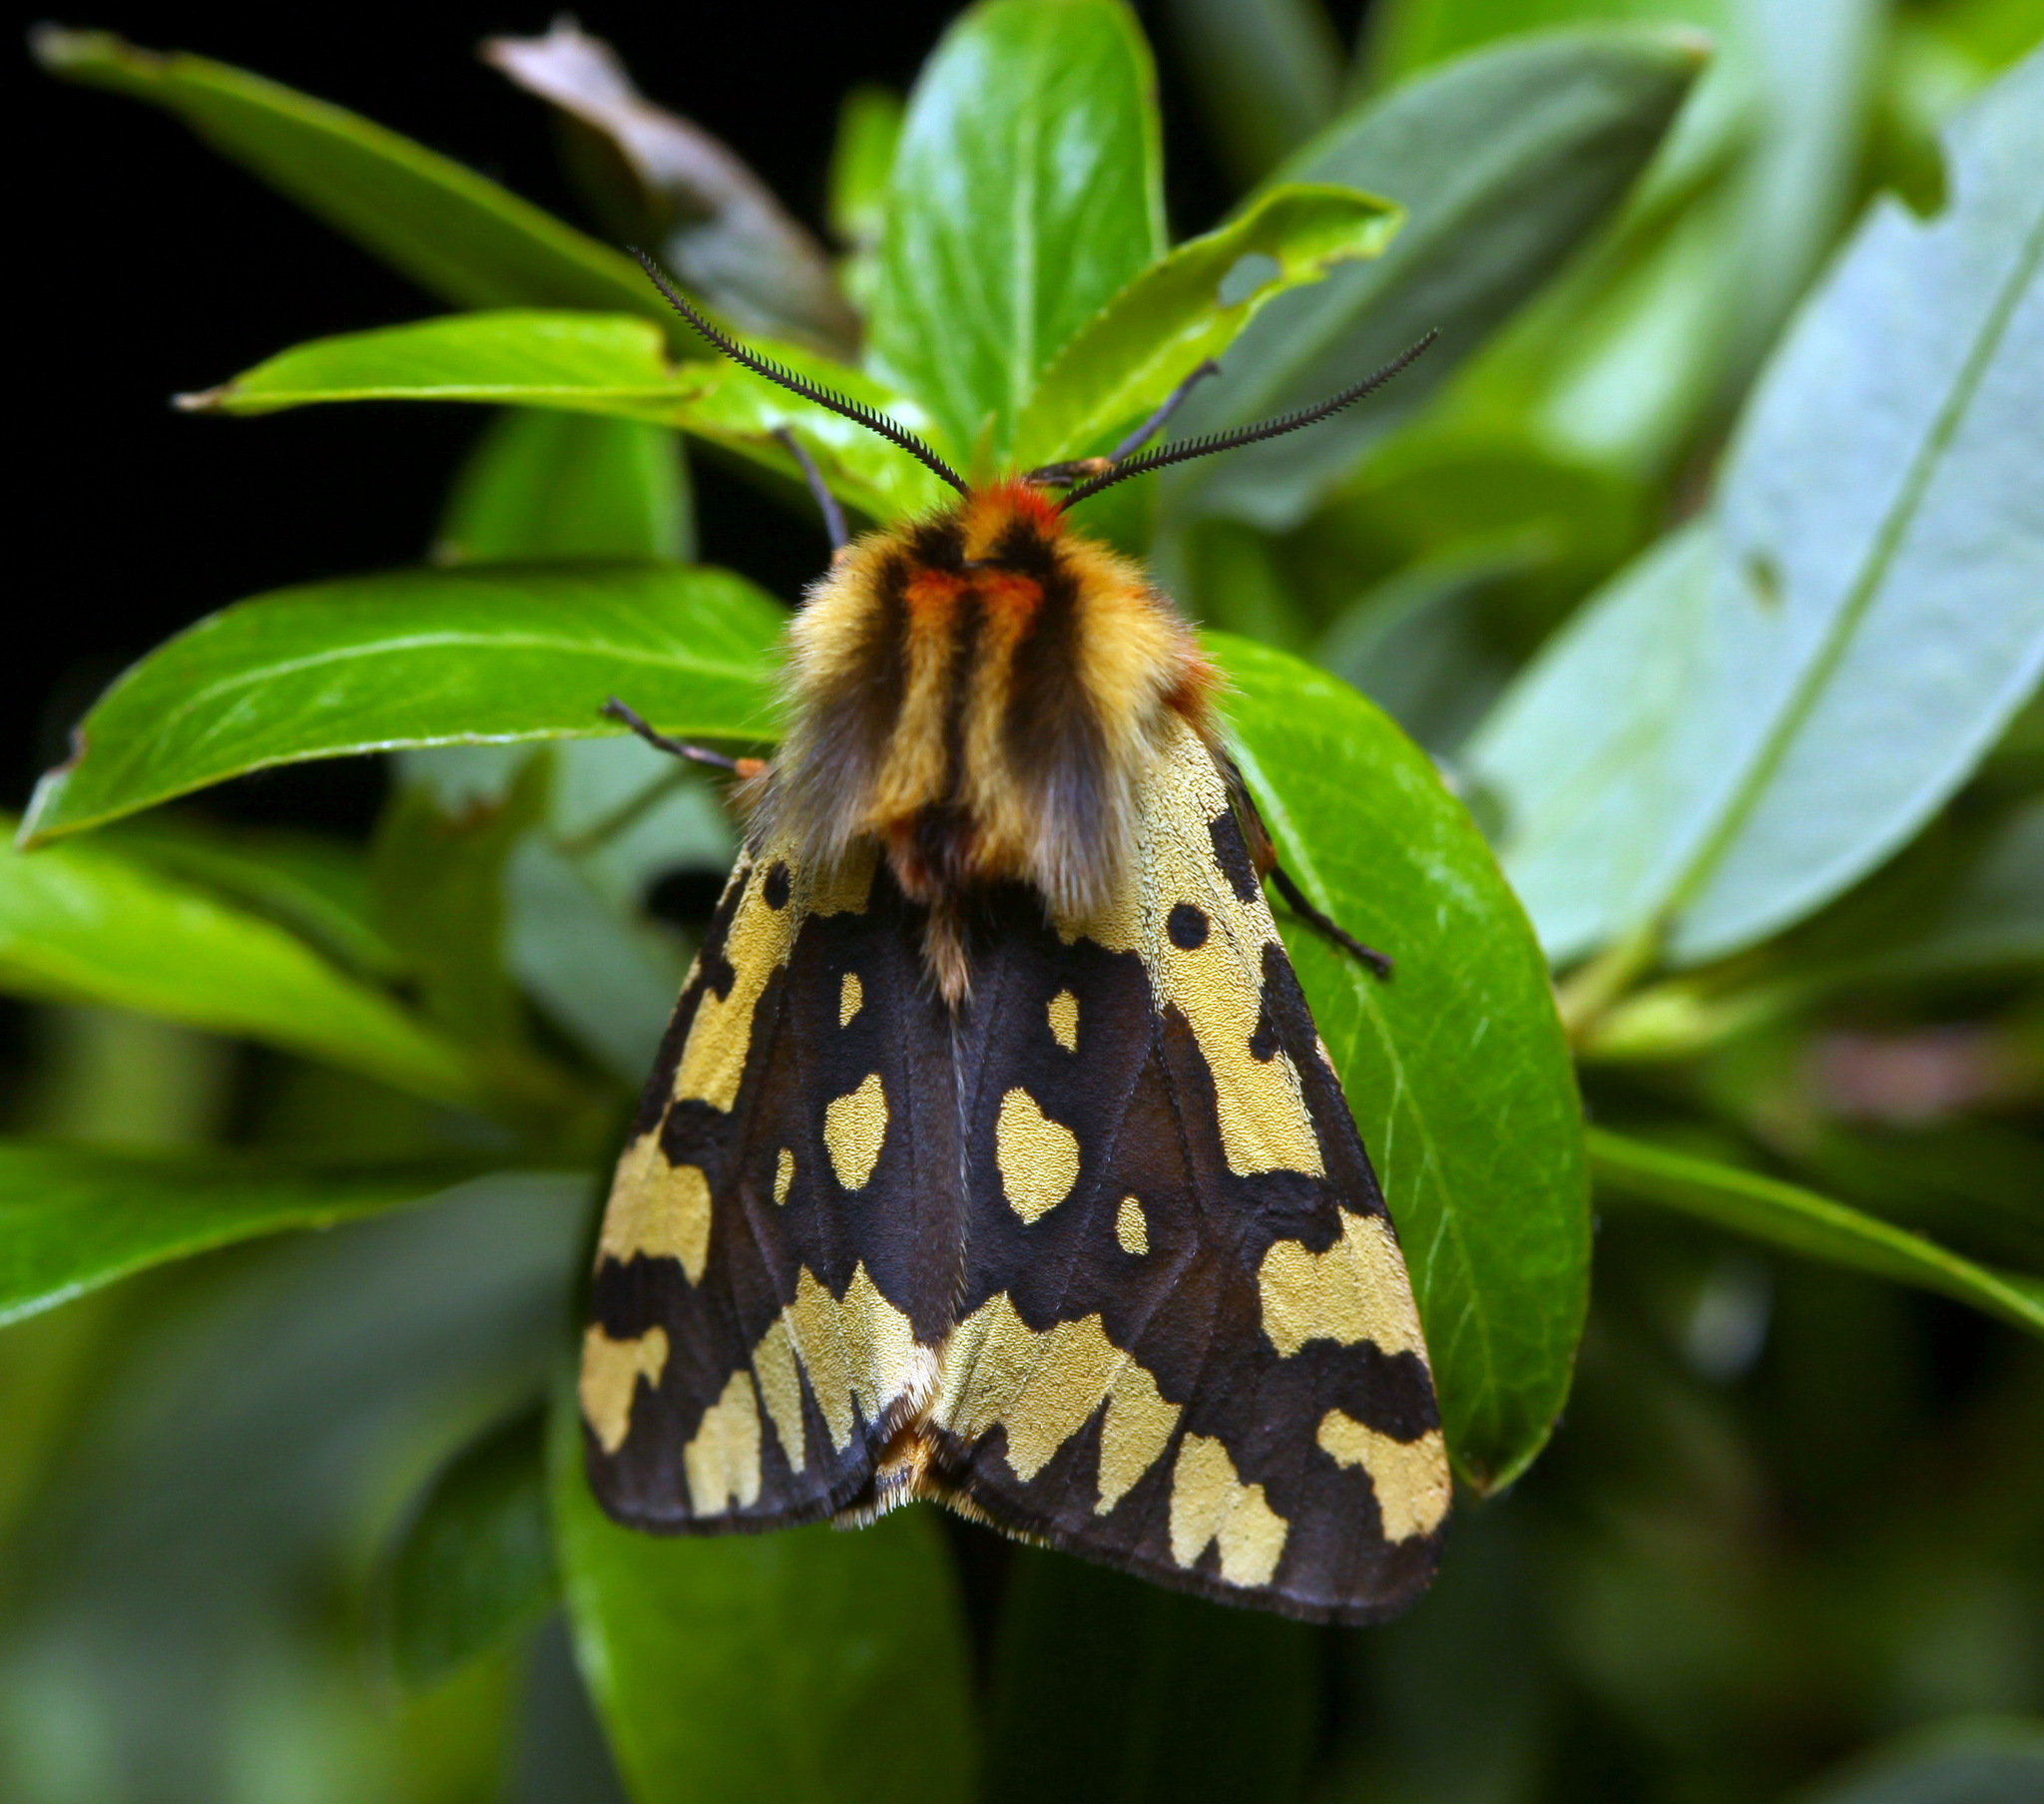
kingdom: Animalia
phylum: Arthropoda
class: Insecta
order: Lepidoptera
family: Erebidae
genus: Platarctia
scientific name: Platarctia ornata
